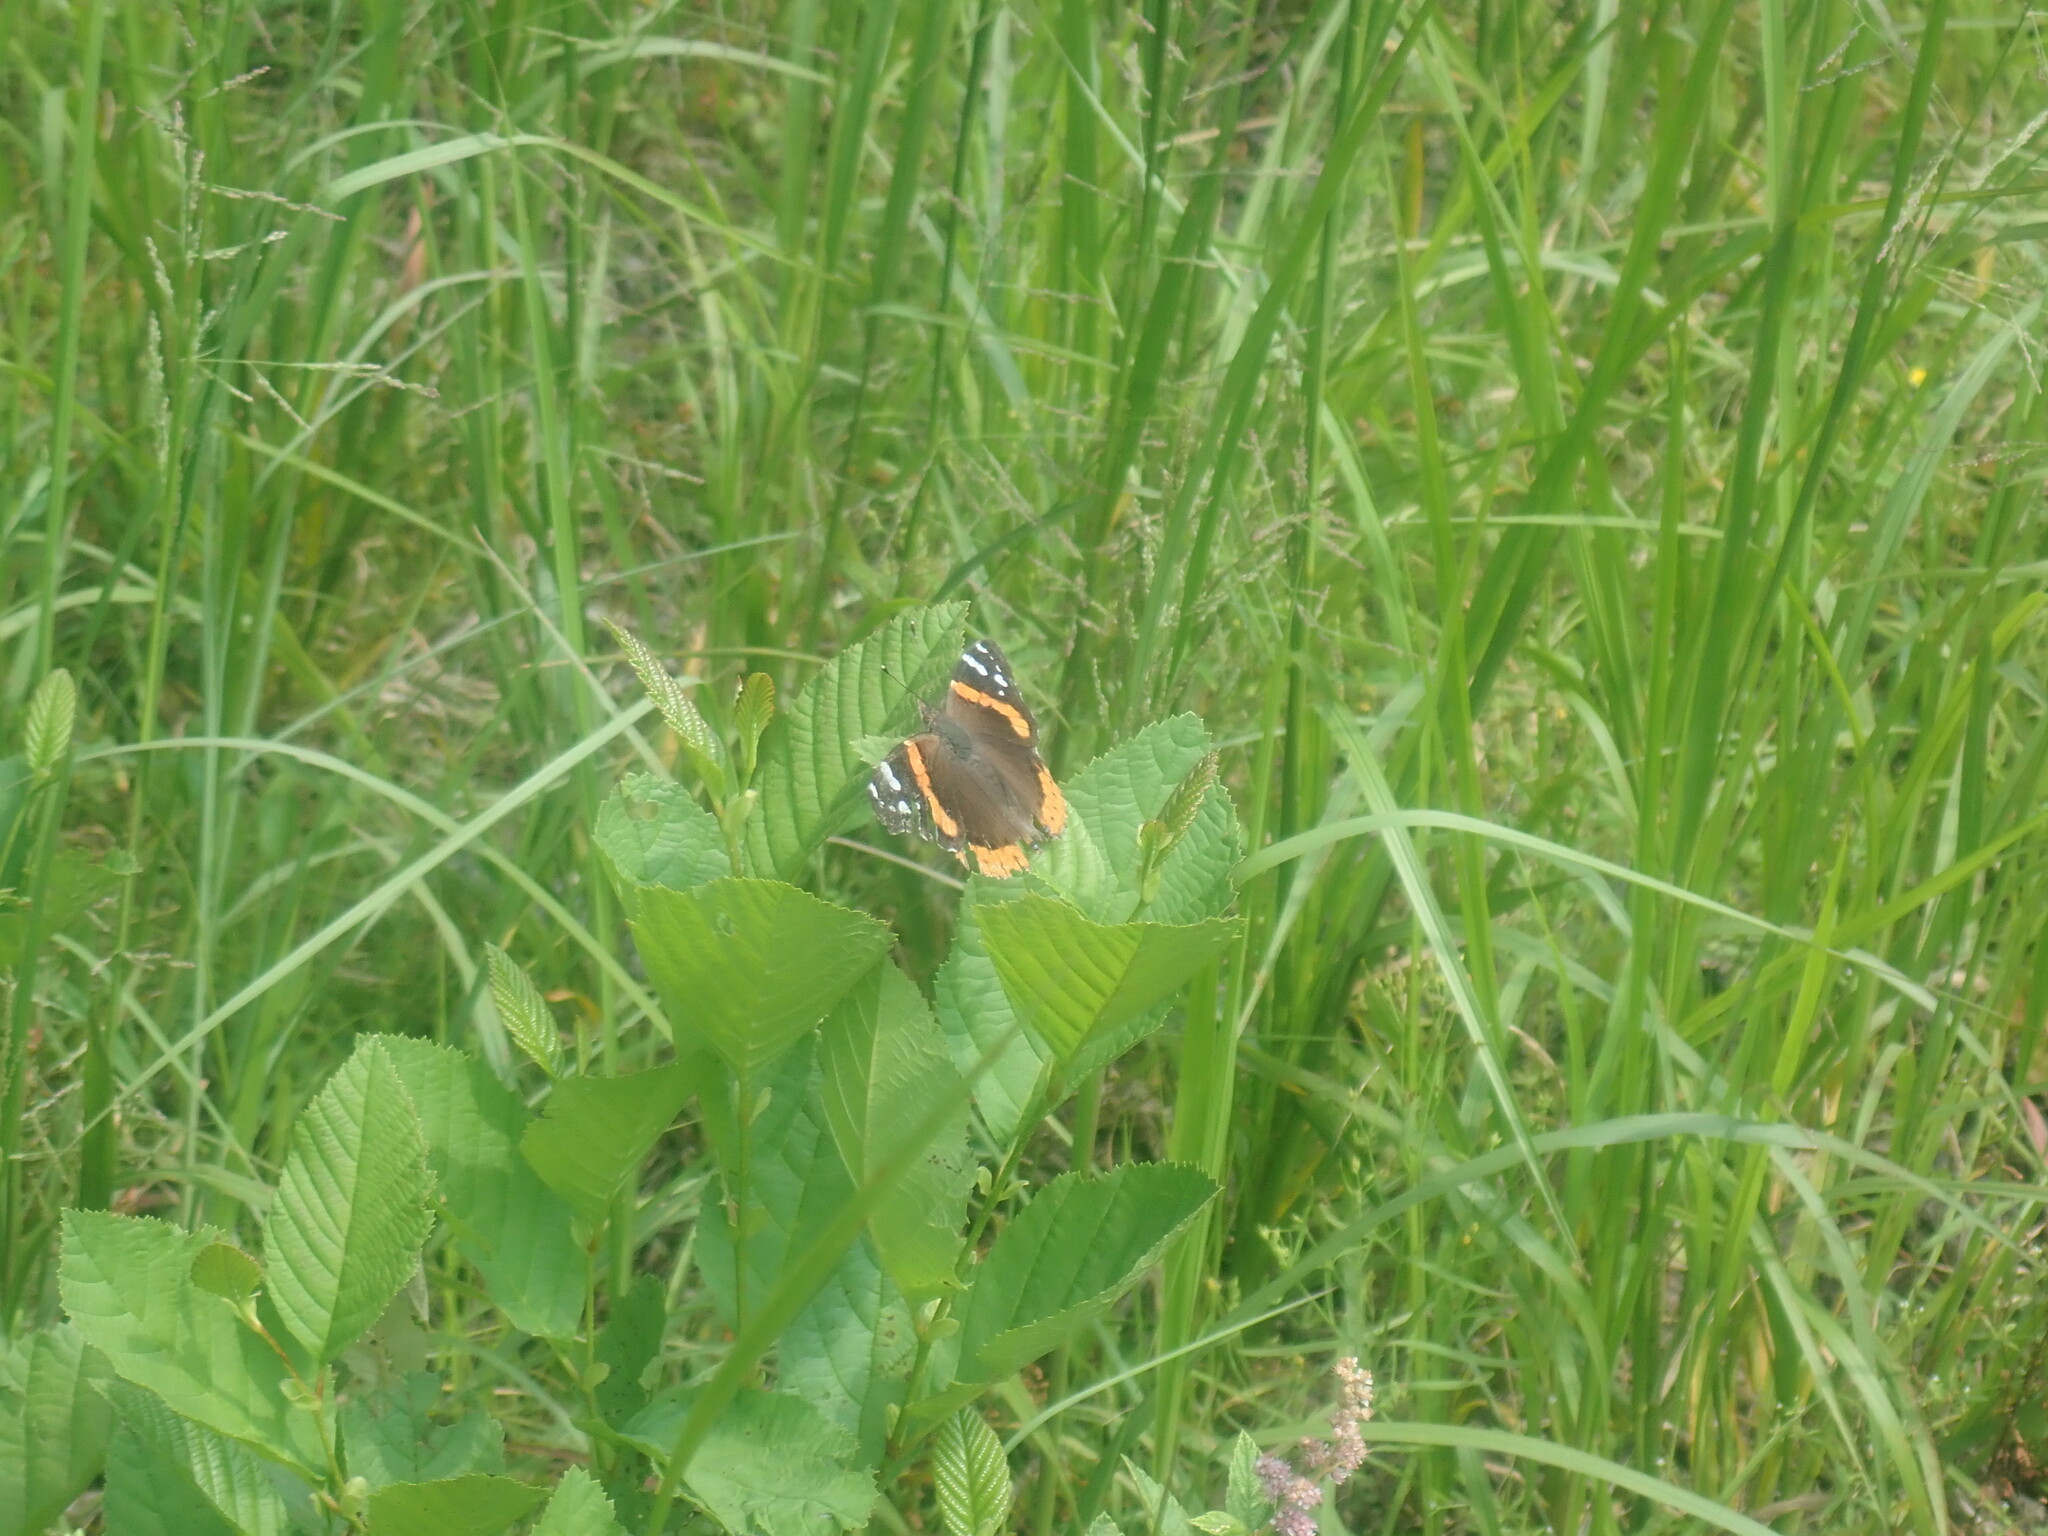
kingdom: Animalia
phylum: Arthropoda
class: Insecta
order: Lepidoptera
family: Nymphalidae
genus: Vanessa
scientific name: Vanessa atalanta
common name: Red admiral
